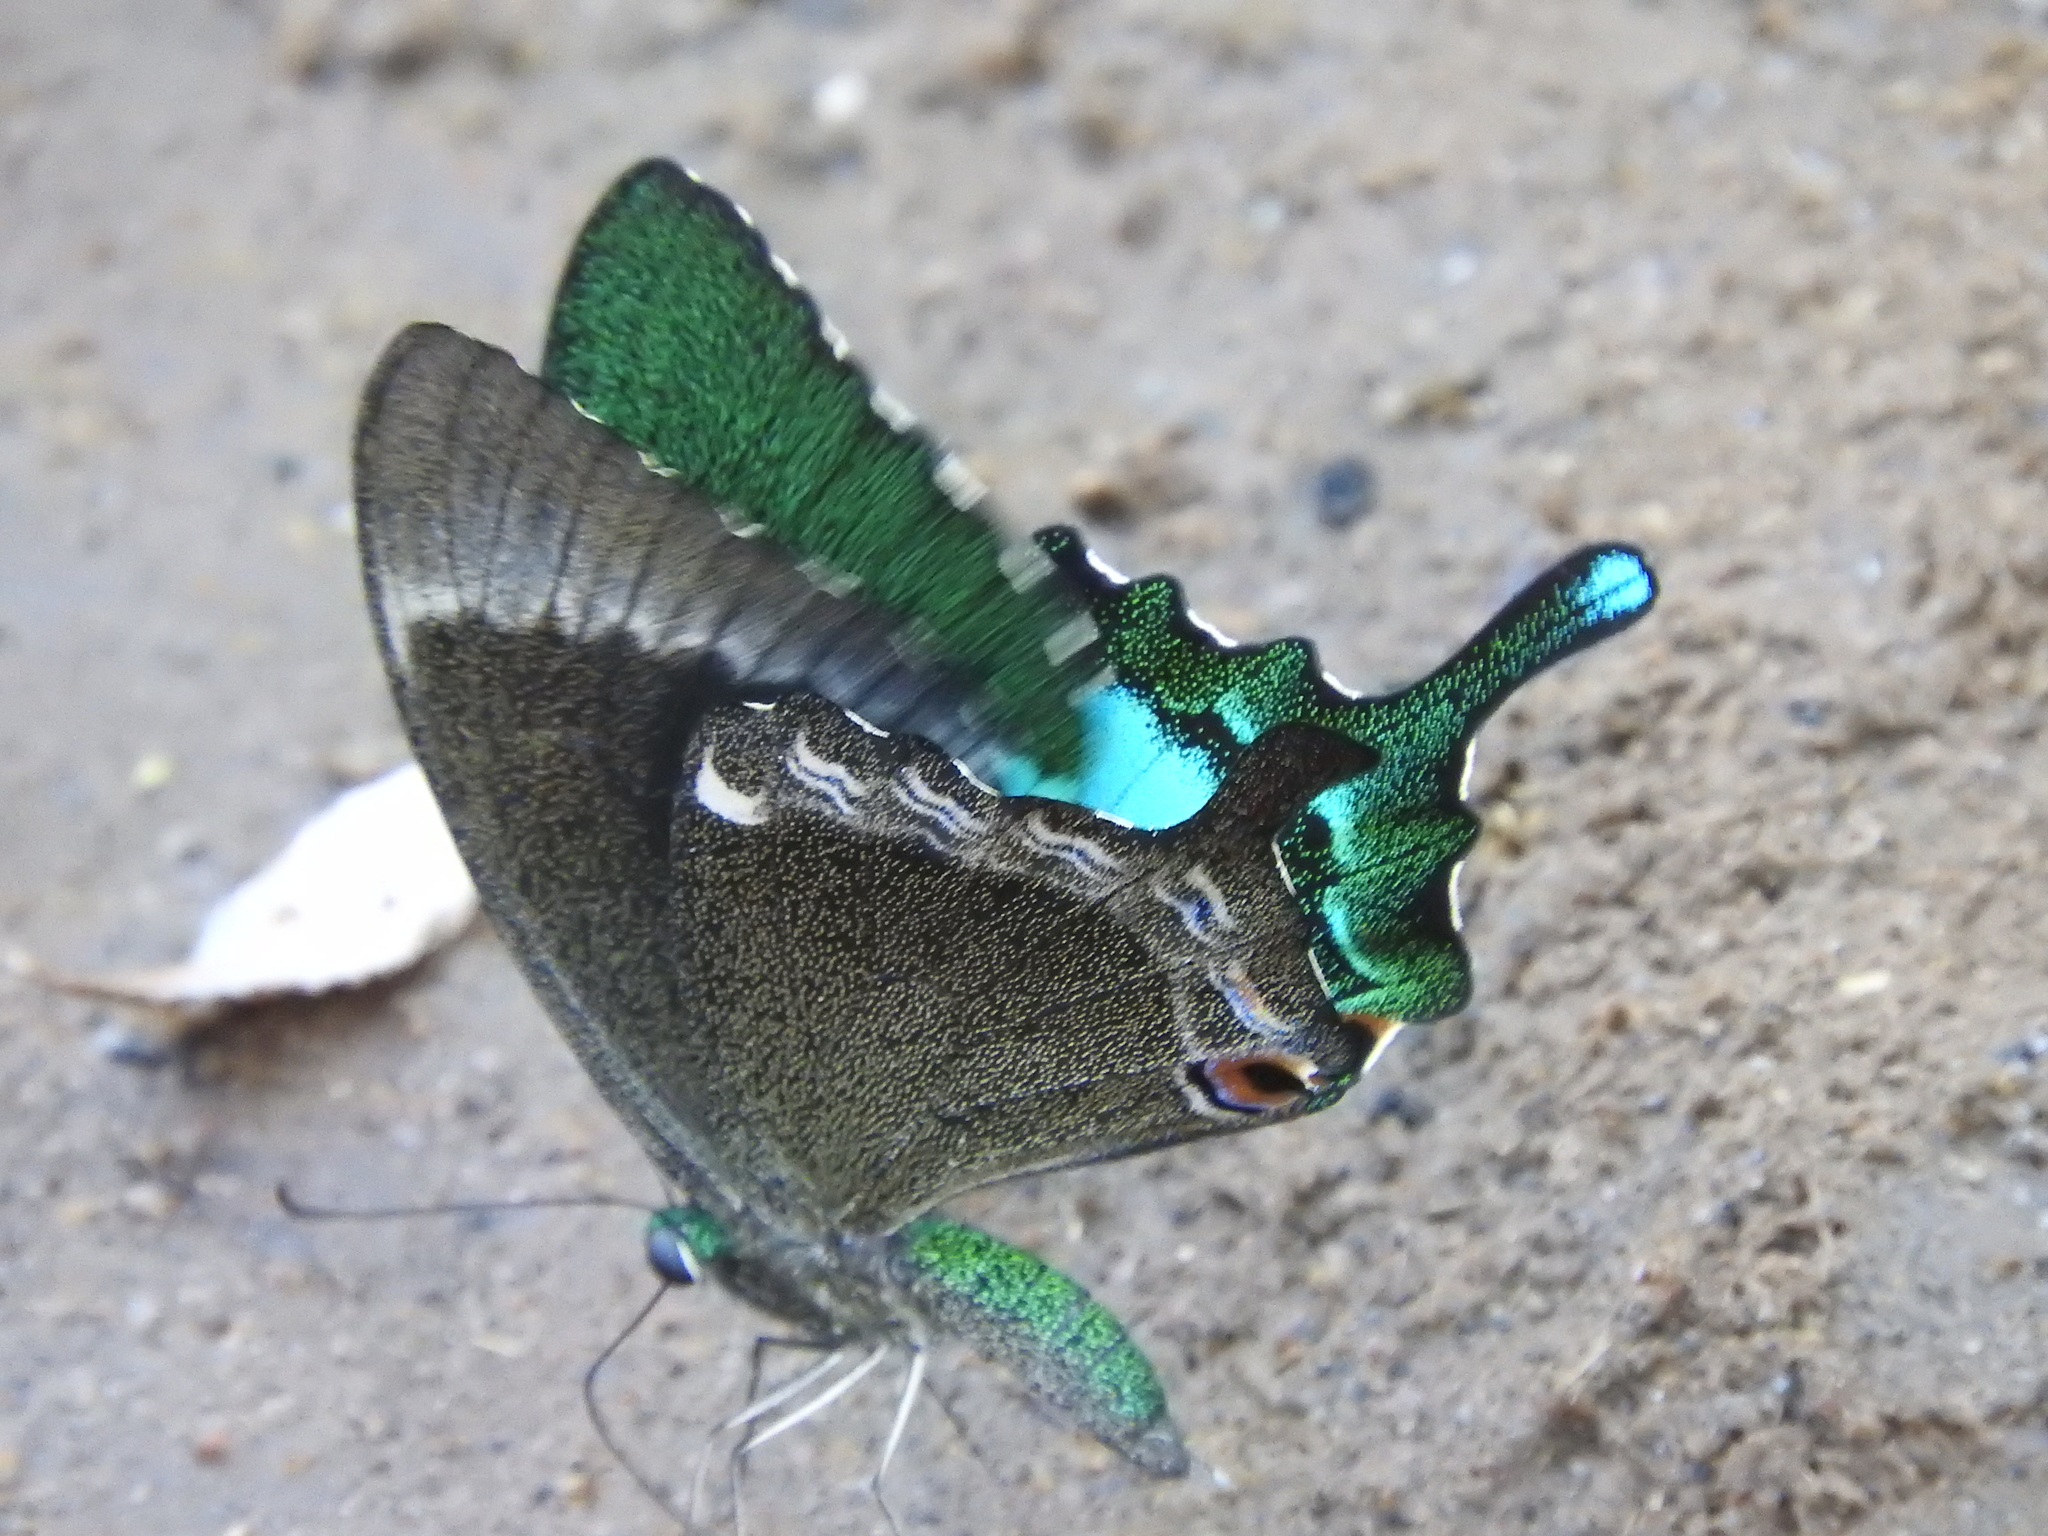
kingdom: Animalia
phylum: Arthropoda
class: Insecta
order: Lepidoptera
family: Papilionidae
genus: Papilio
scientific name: Papilio crino
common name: Common banded peacock
